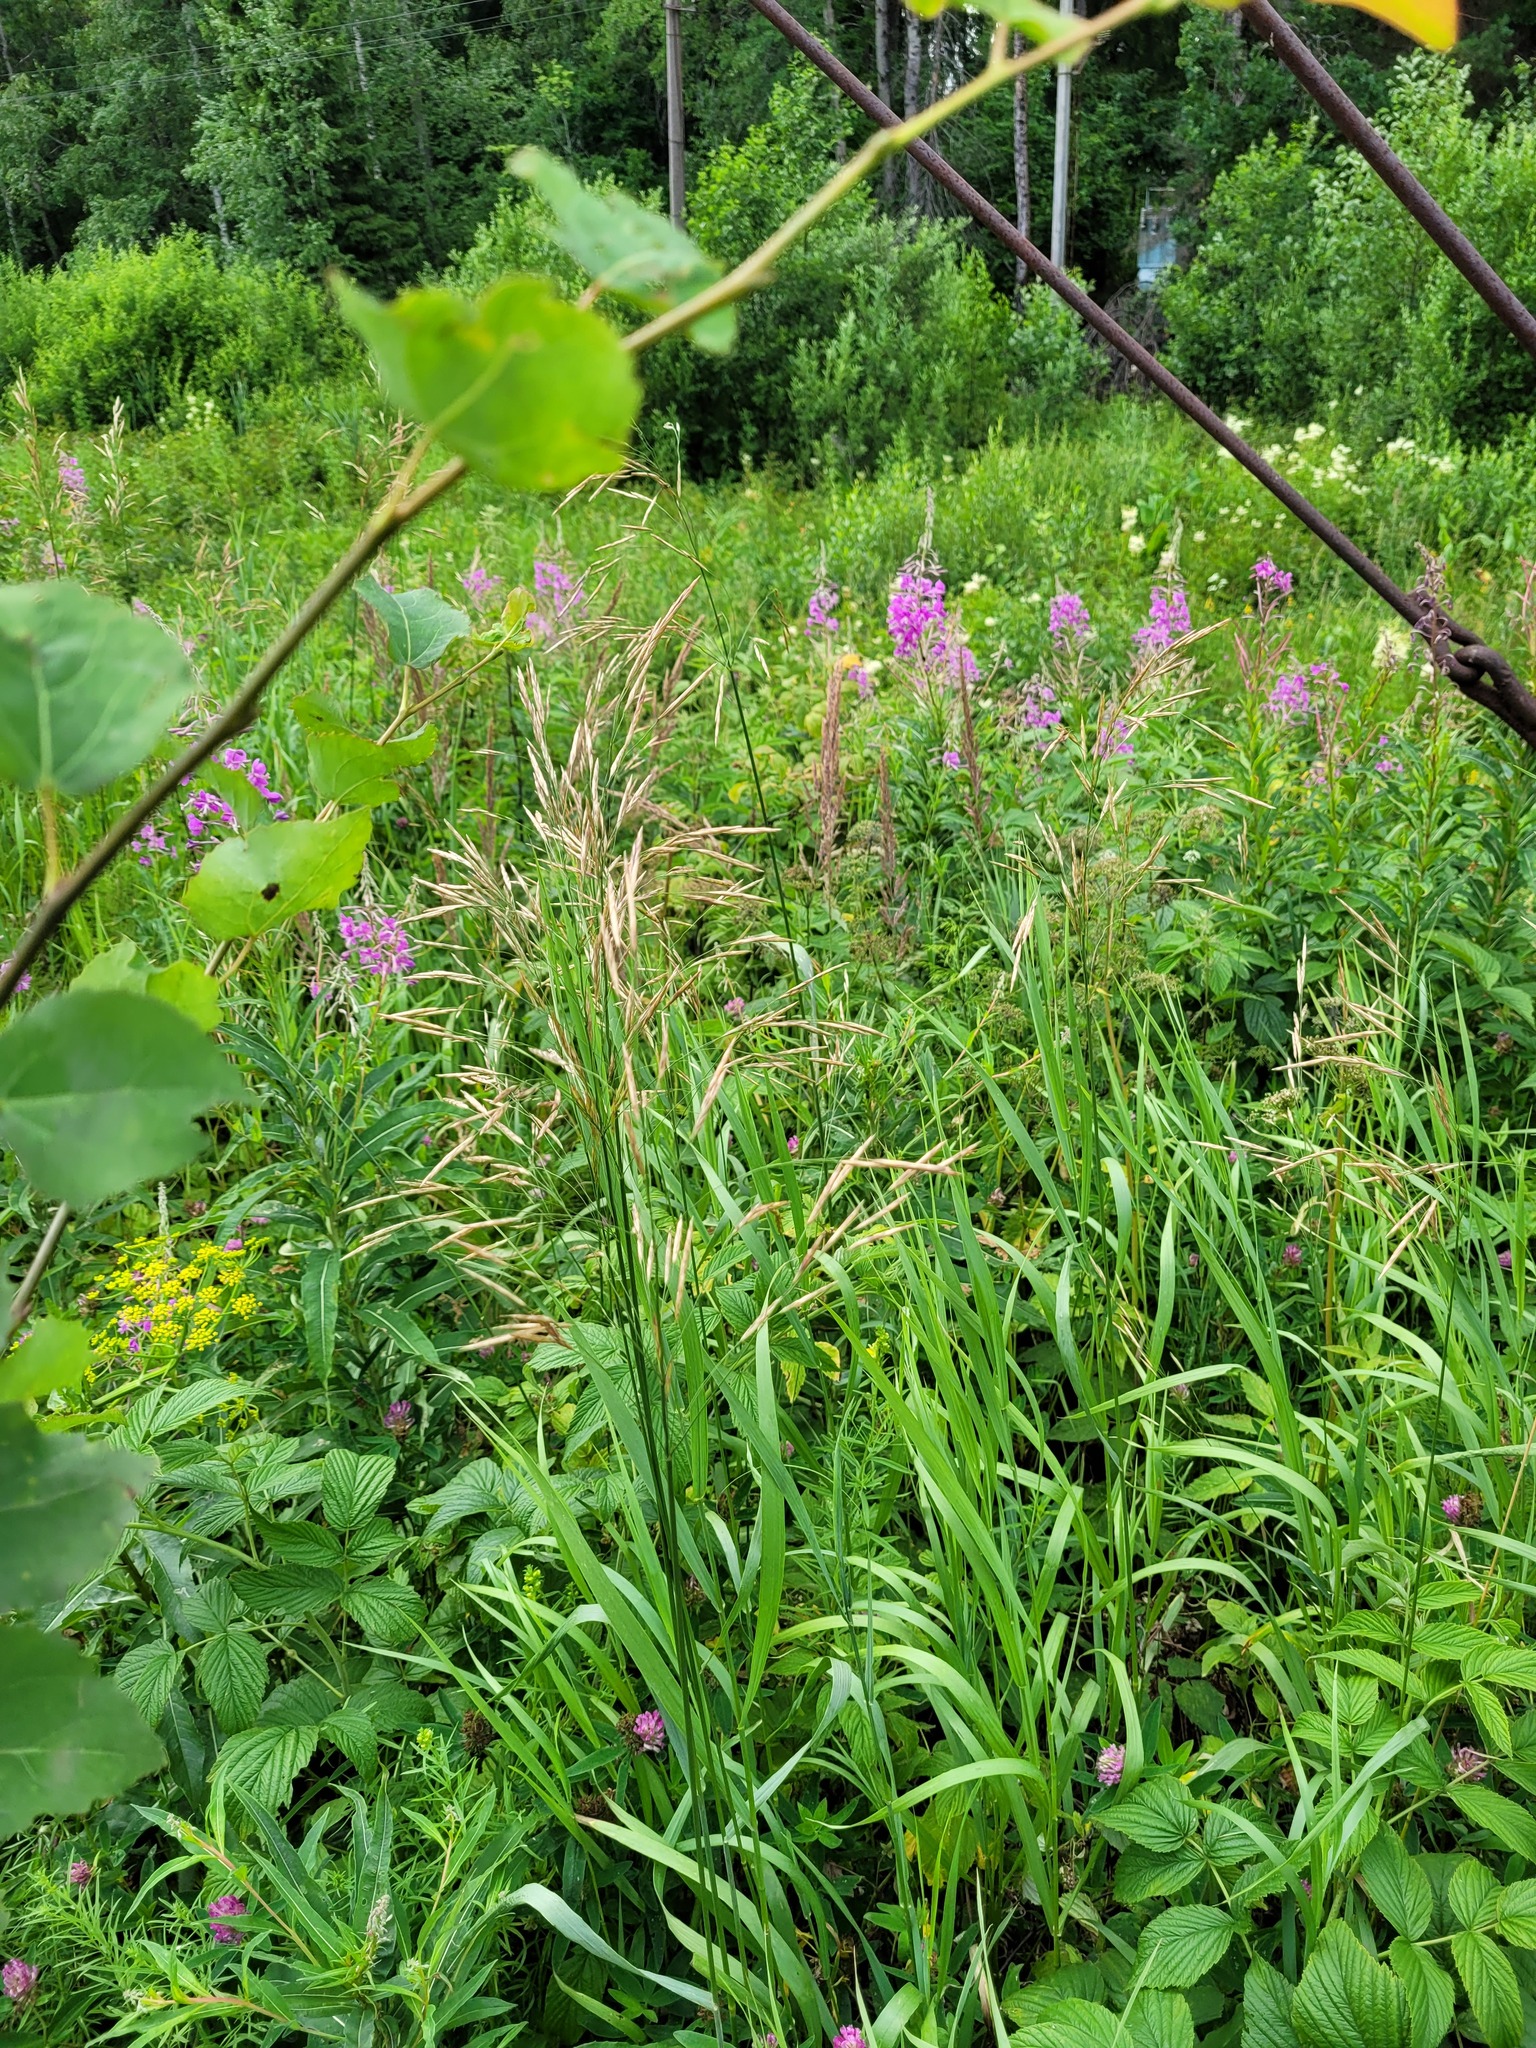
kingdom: Plantae
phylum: Tracheophyta
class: Liliopsida
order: Poales
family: Poaceae
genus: Bromus
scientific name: Bromus inermis
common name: Smooth brome
